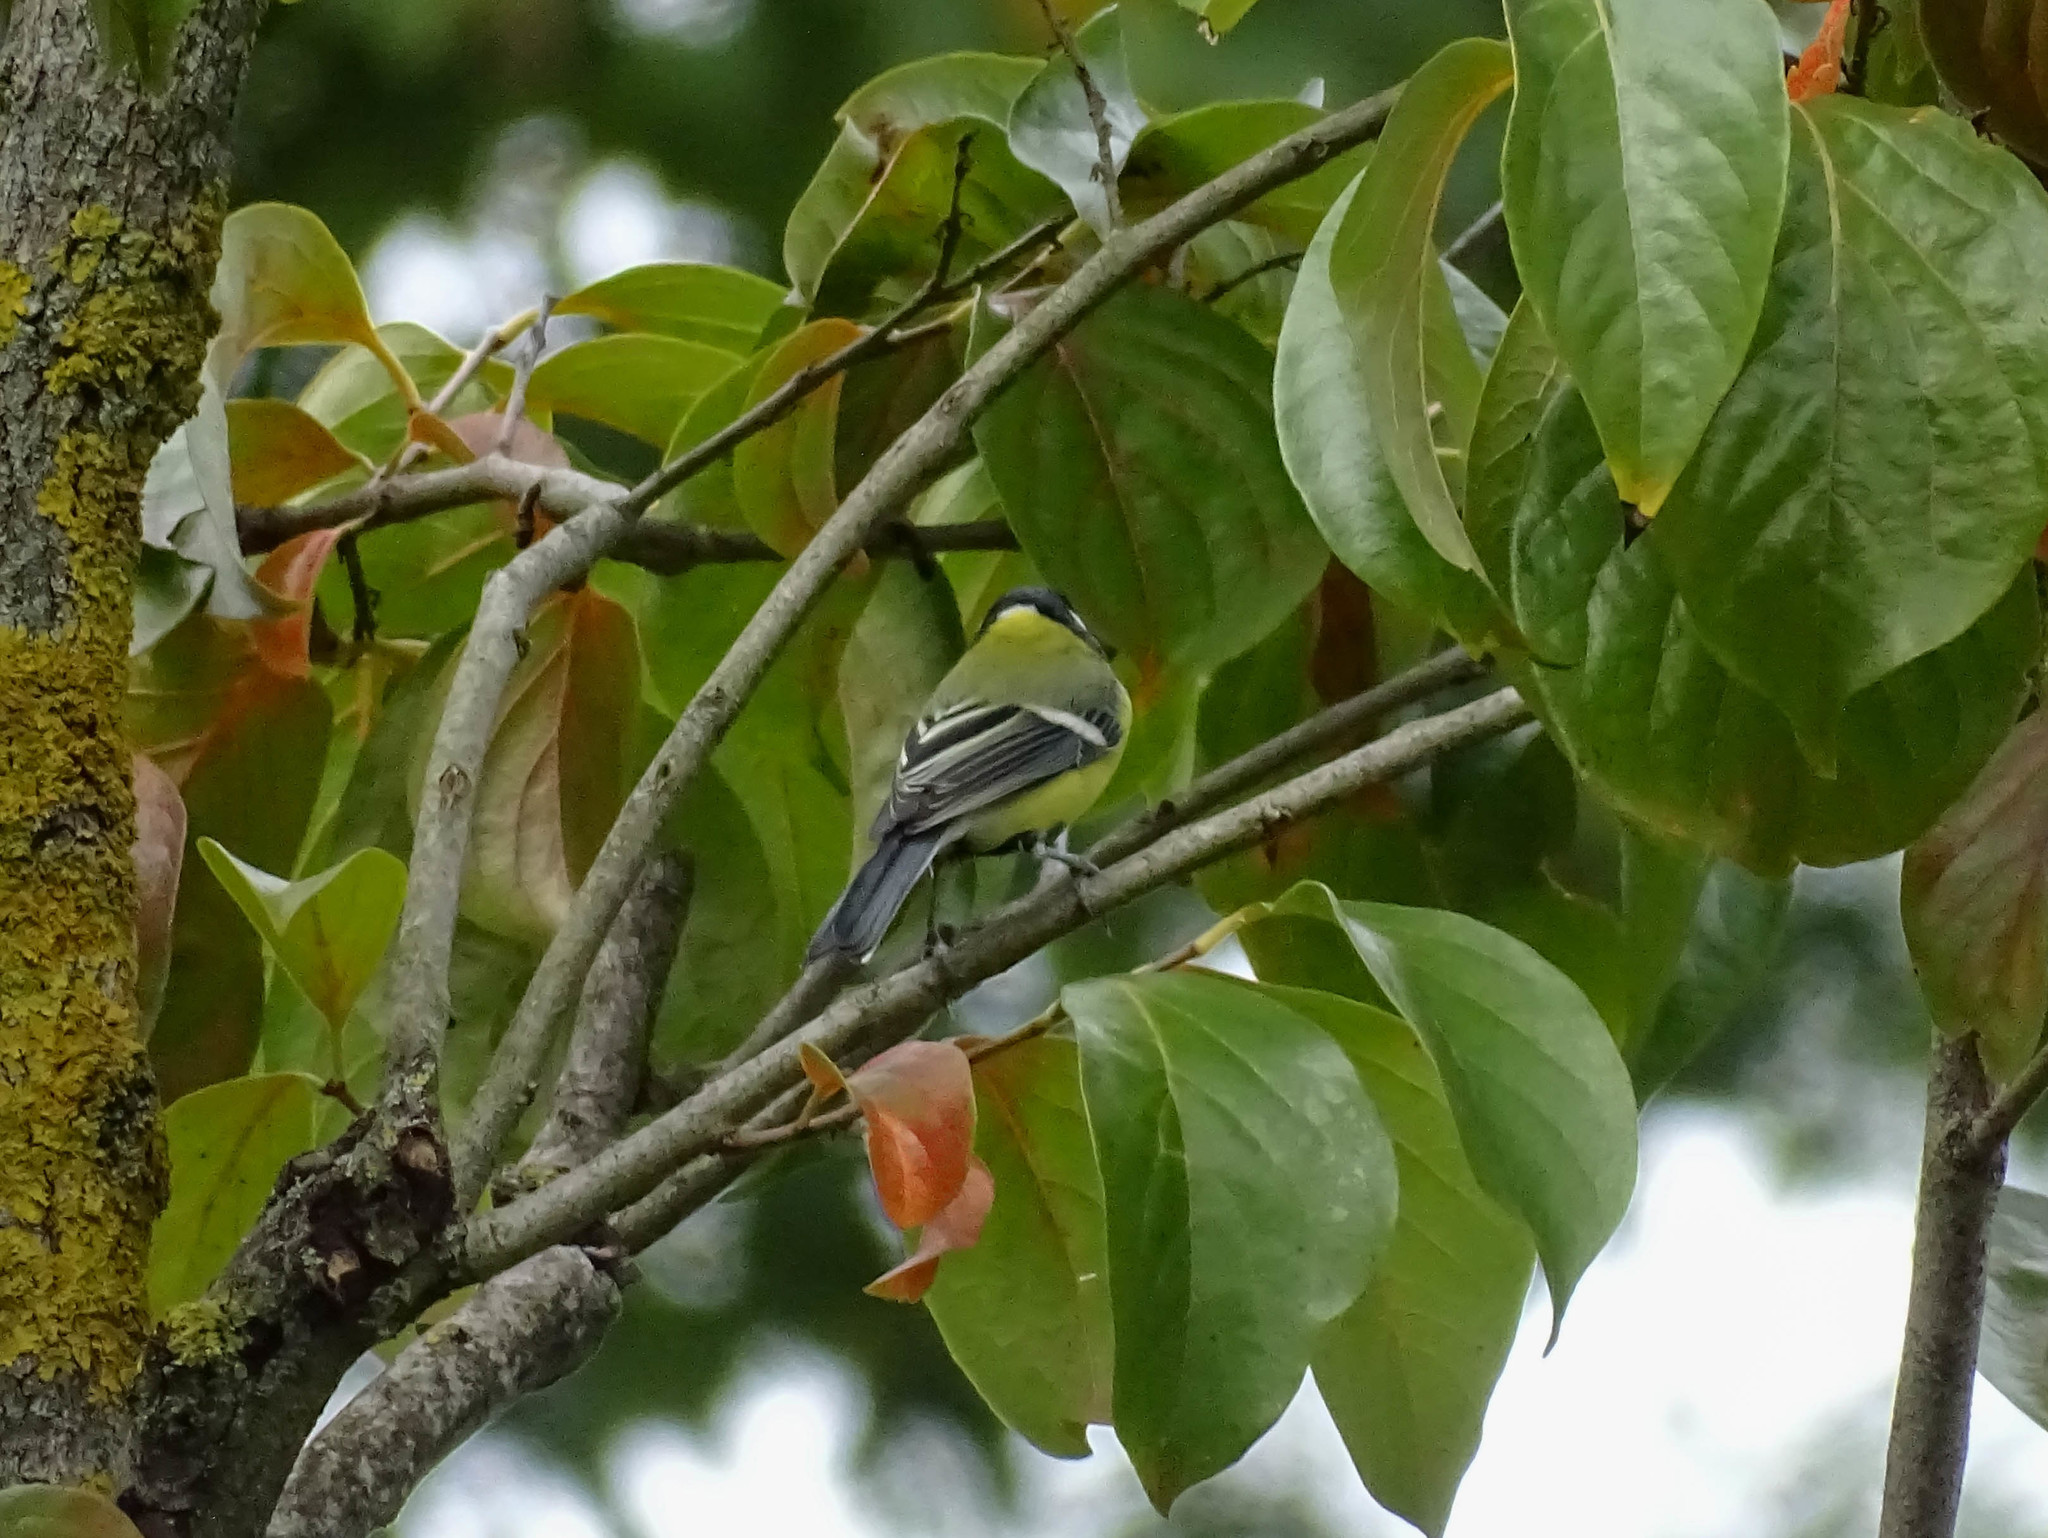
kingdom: Animalia
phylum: Chordata
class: Aves
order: Passeriformes
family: Paridae
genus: Parus
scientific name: Parus major
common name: Great tit
